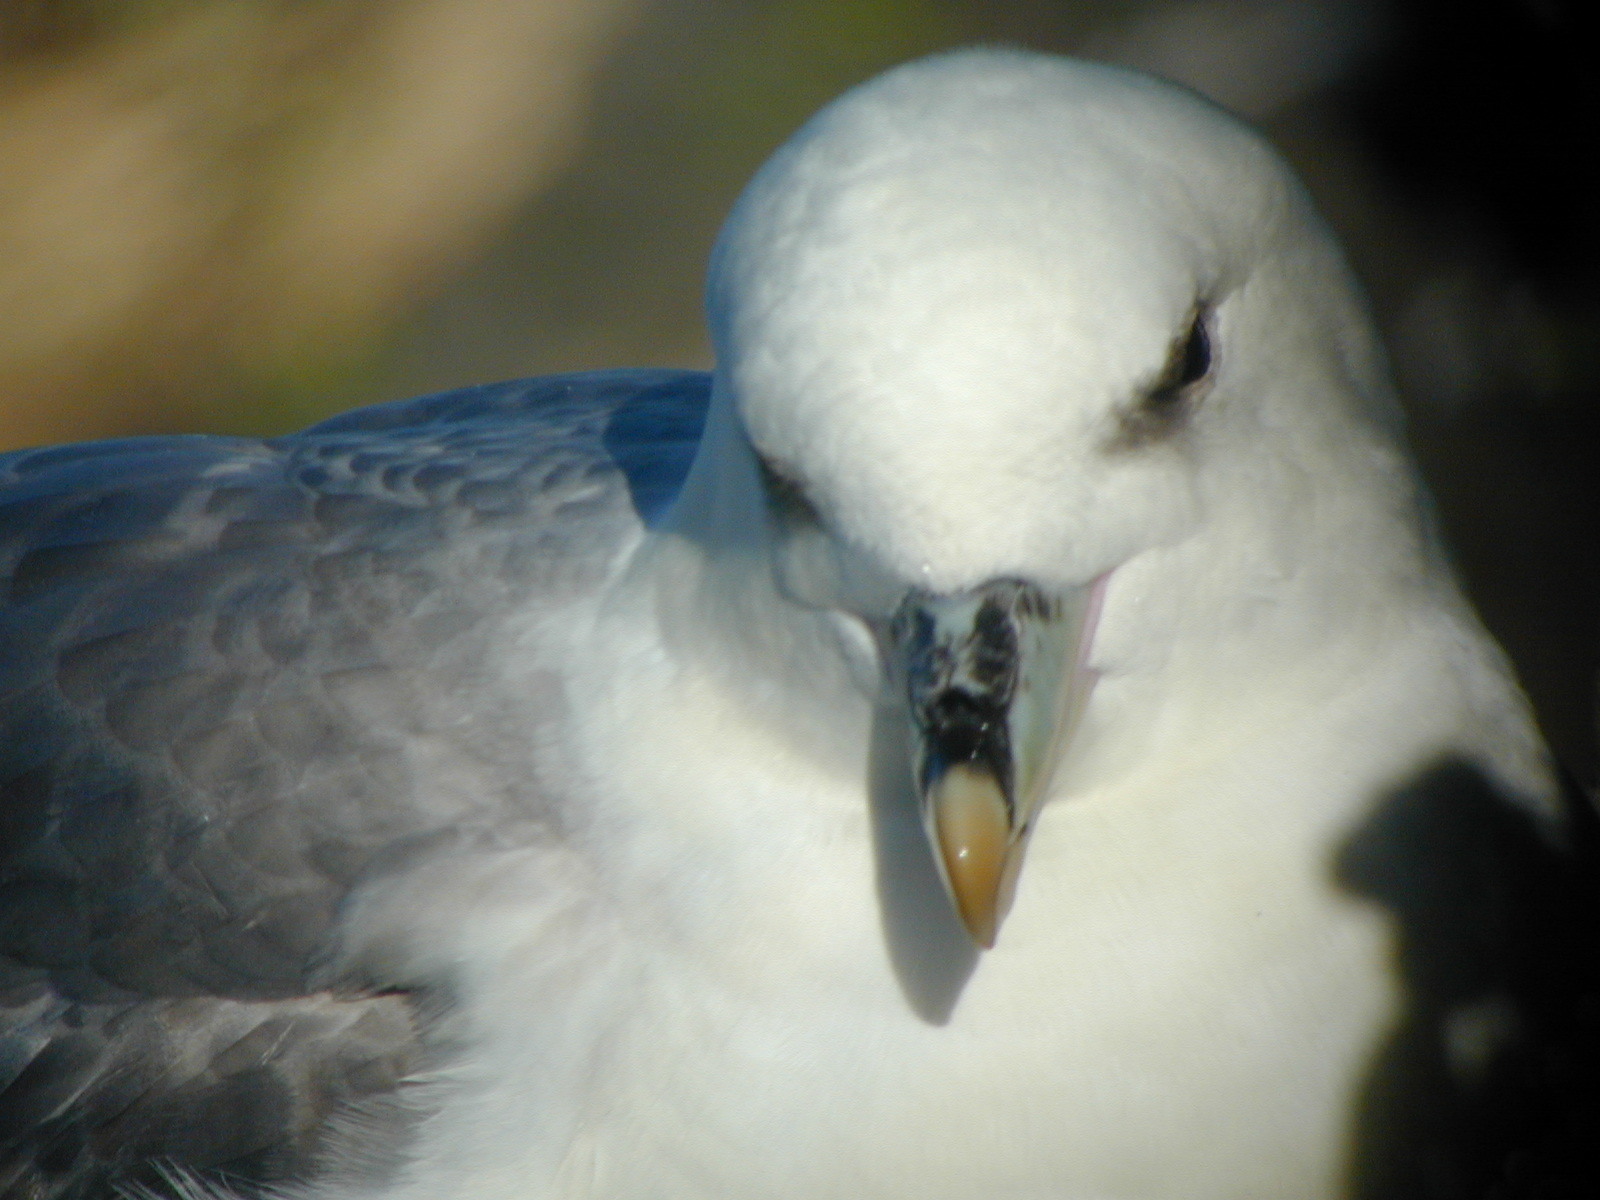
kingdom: Animalia
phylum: Chordata
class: Aves
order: Procellariiformes
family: Procellariidae
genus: Fulmarus
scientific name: Fulmarus glacialis
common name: Northern fulmar
